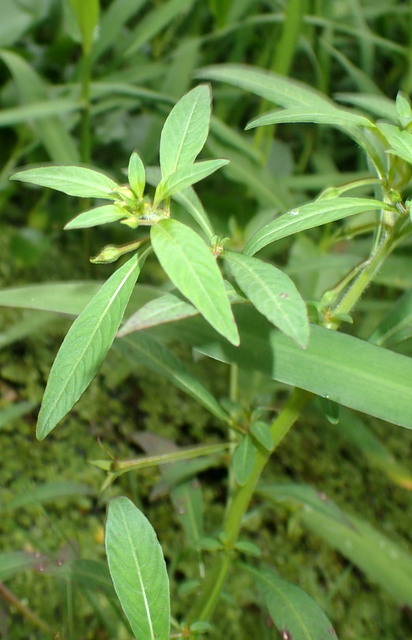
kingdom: Plantae
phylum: Tracheophyta
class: Magnoliopsida
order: Myrtales
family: Onagraceae
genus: Ludwigia
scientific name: Ludwigia leptocarpa
